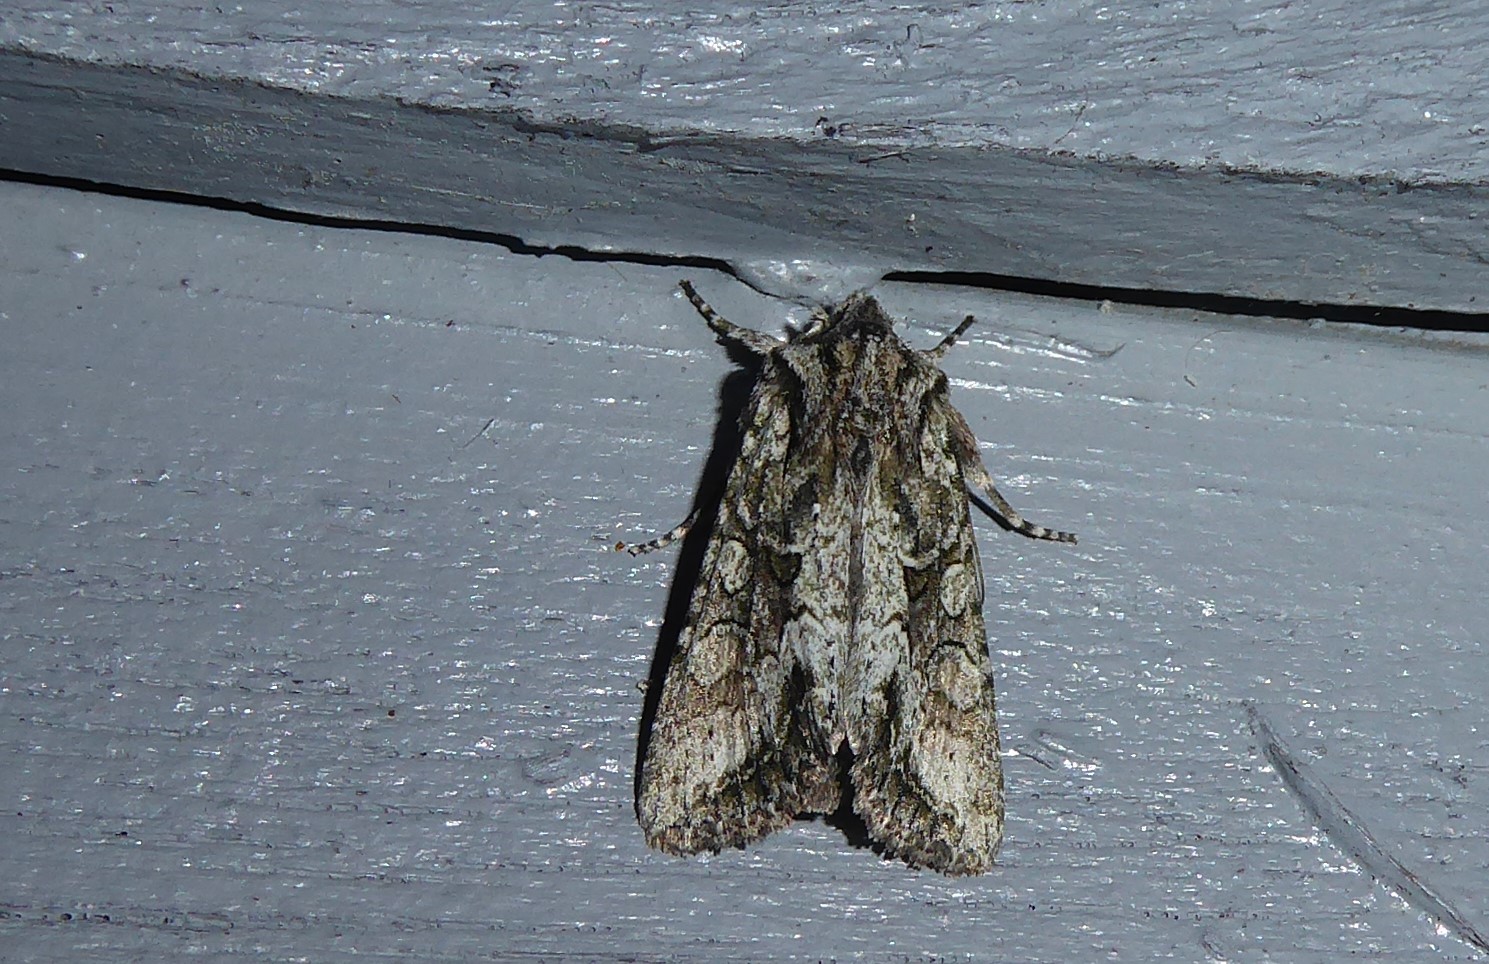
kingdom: Animalia
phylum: Arthropoda
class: Insecta
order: Lepidoptera
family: Noctuidae
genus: Ichneutica
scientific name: Ichneutica mutans
